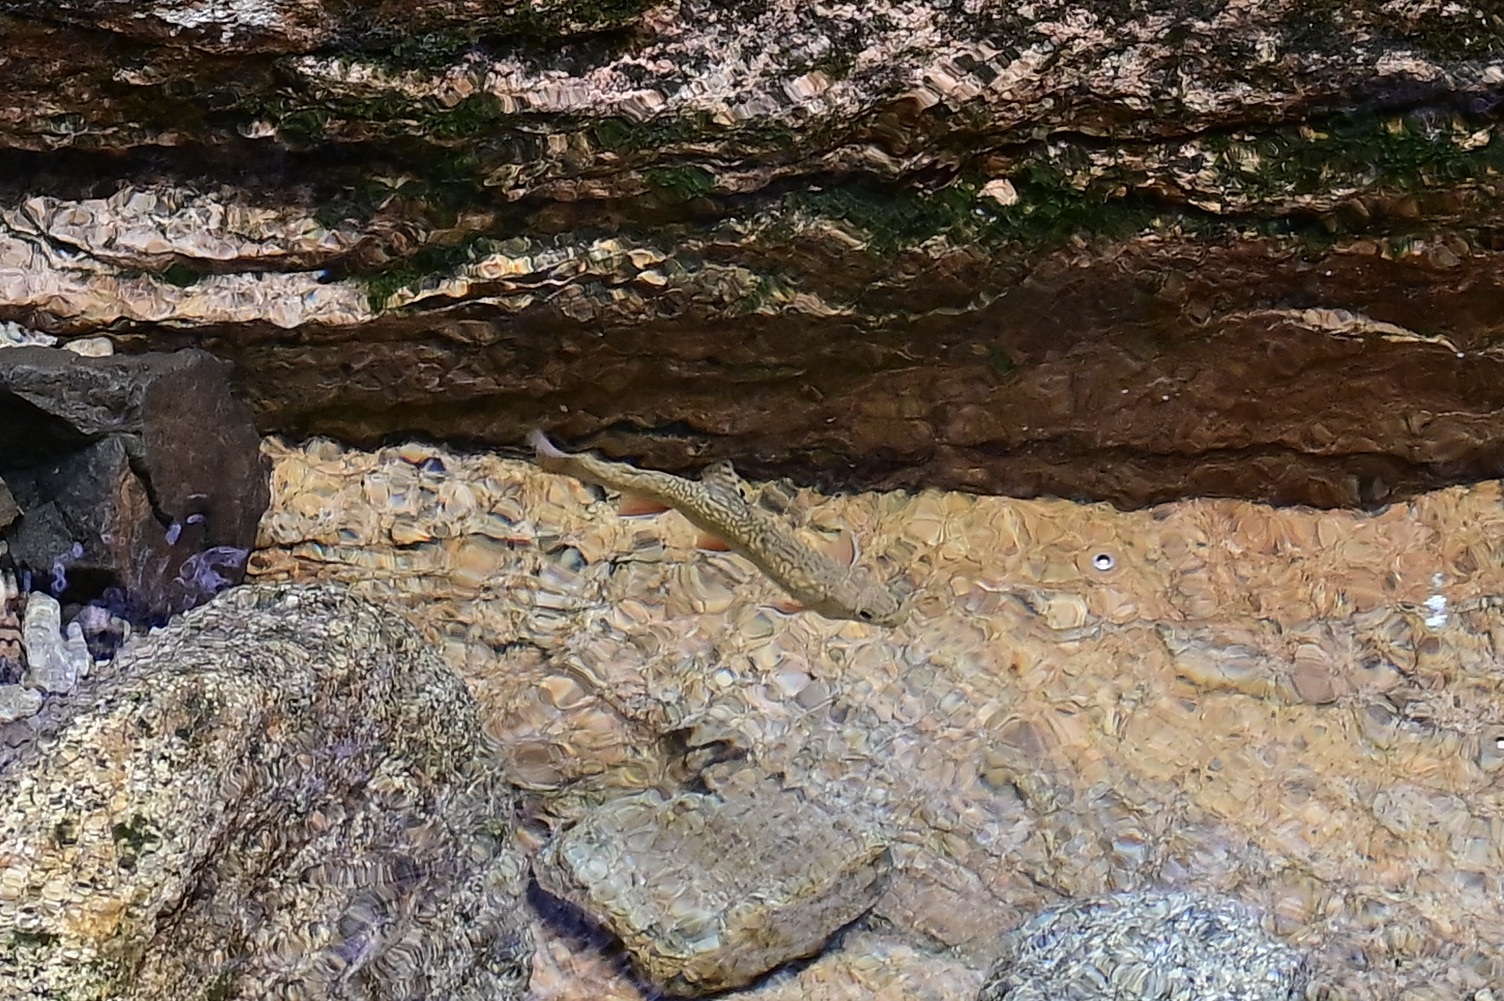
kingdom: Animalia
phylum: Chordata
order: Salmoniformes
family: Salmonidae
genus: Salvelinus
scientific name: Salvelinus fontinalis
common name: Brook trout
